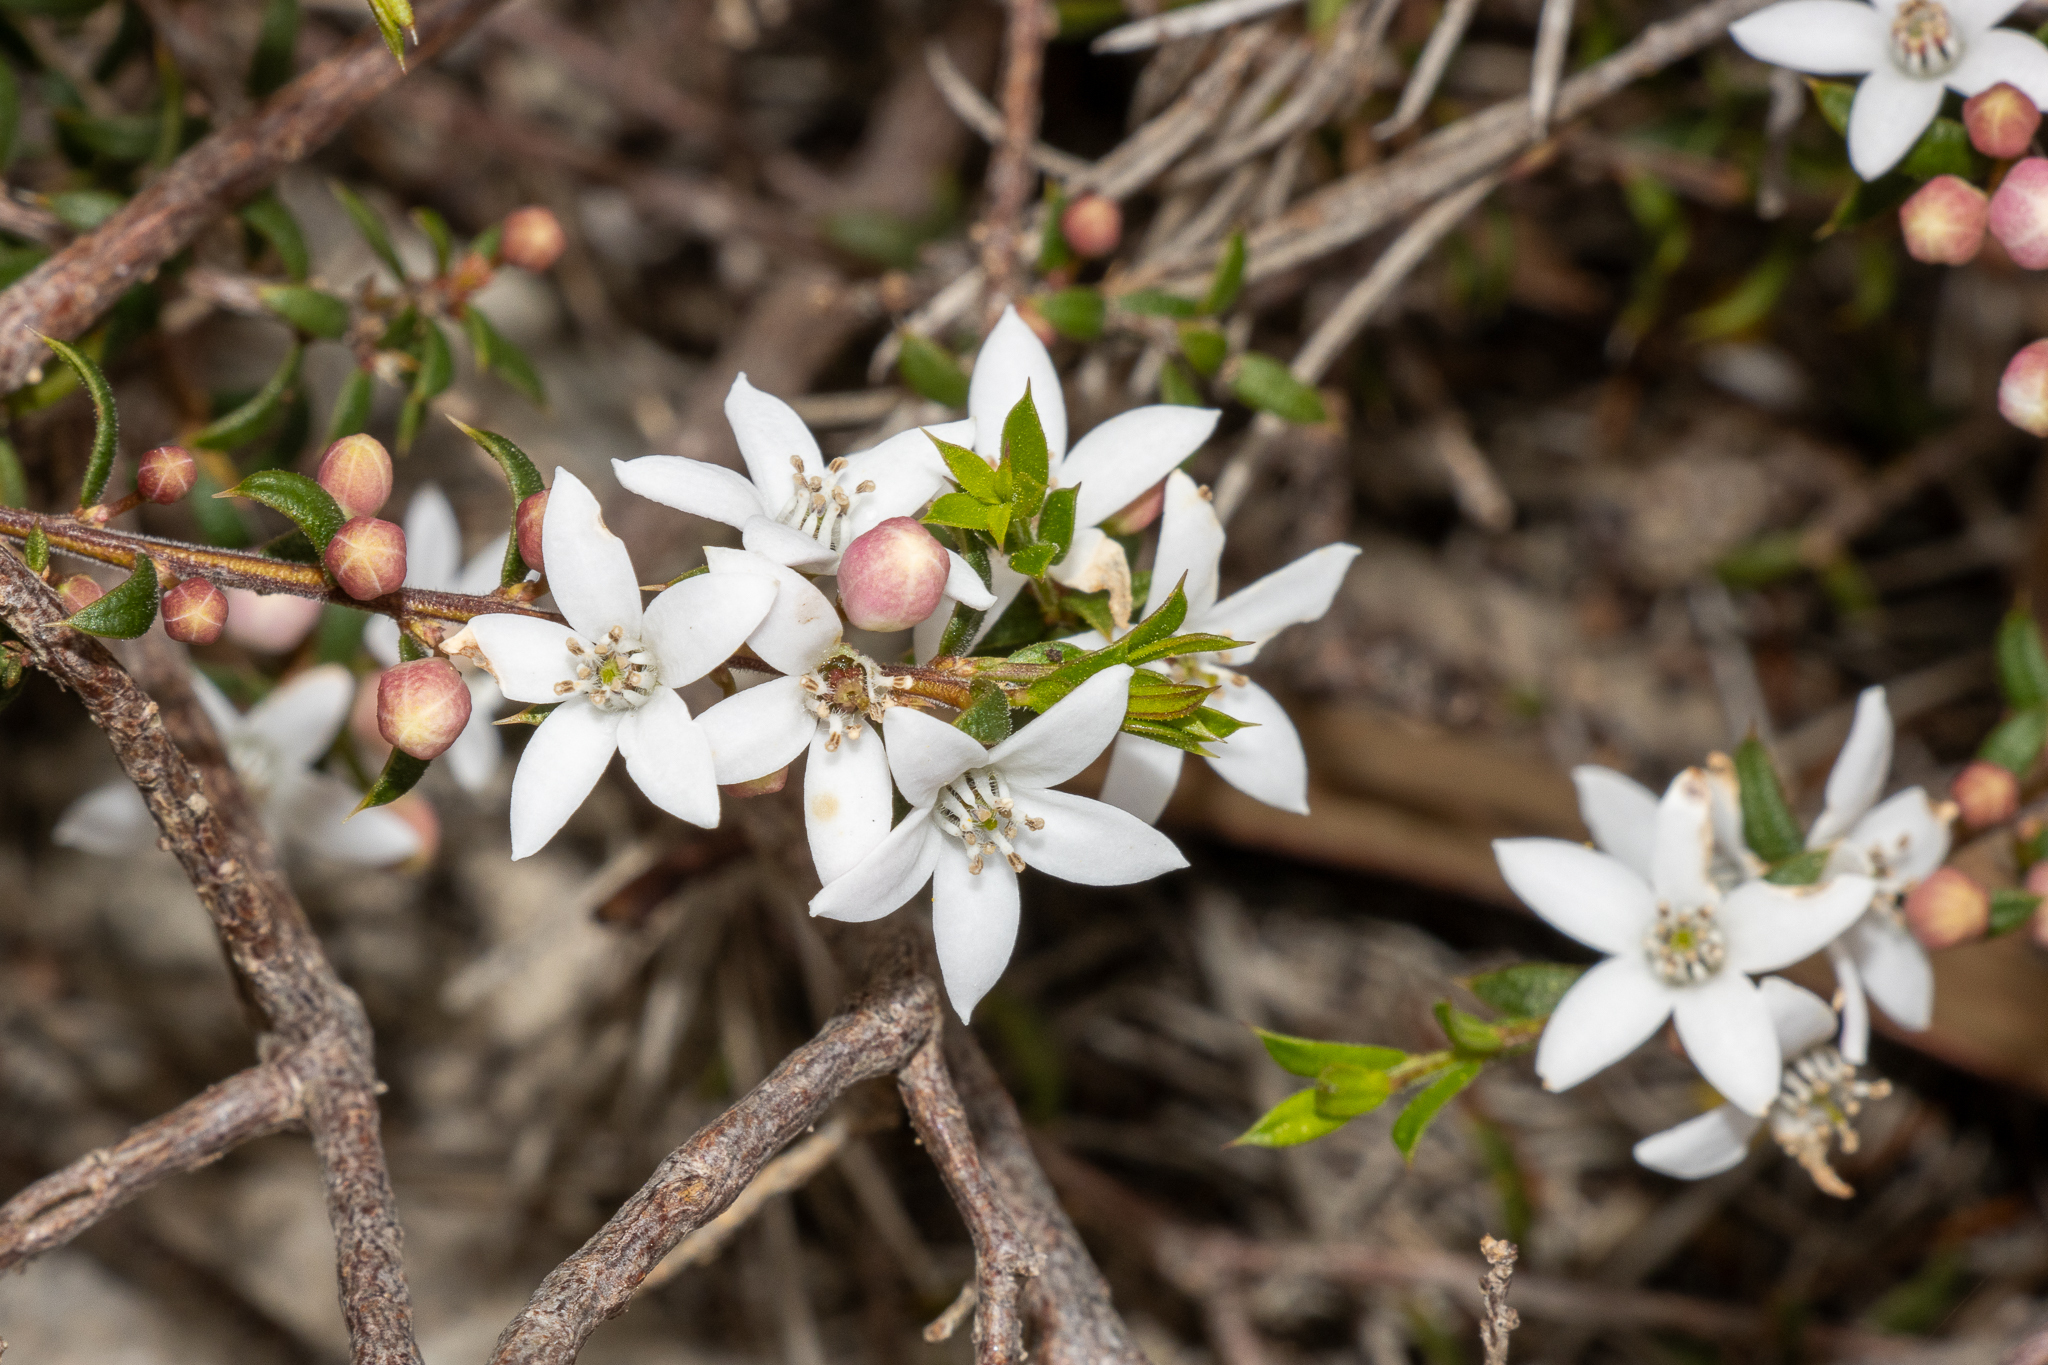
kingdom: Plantae
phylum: Tracheophyta
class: Magnoliopsida
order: Sapindales
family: Rutaceae
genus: Philotheca
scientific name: Philotheca pungens
